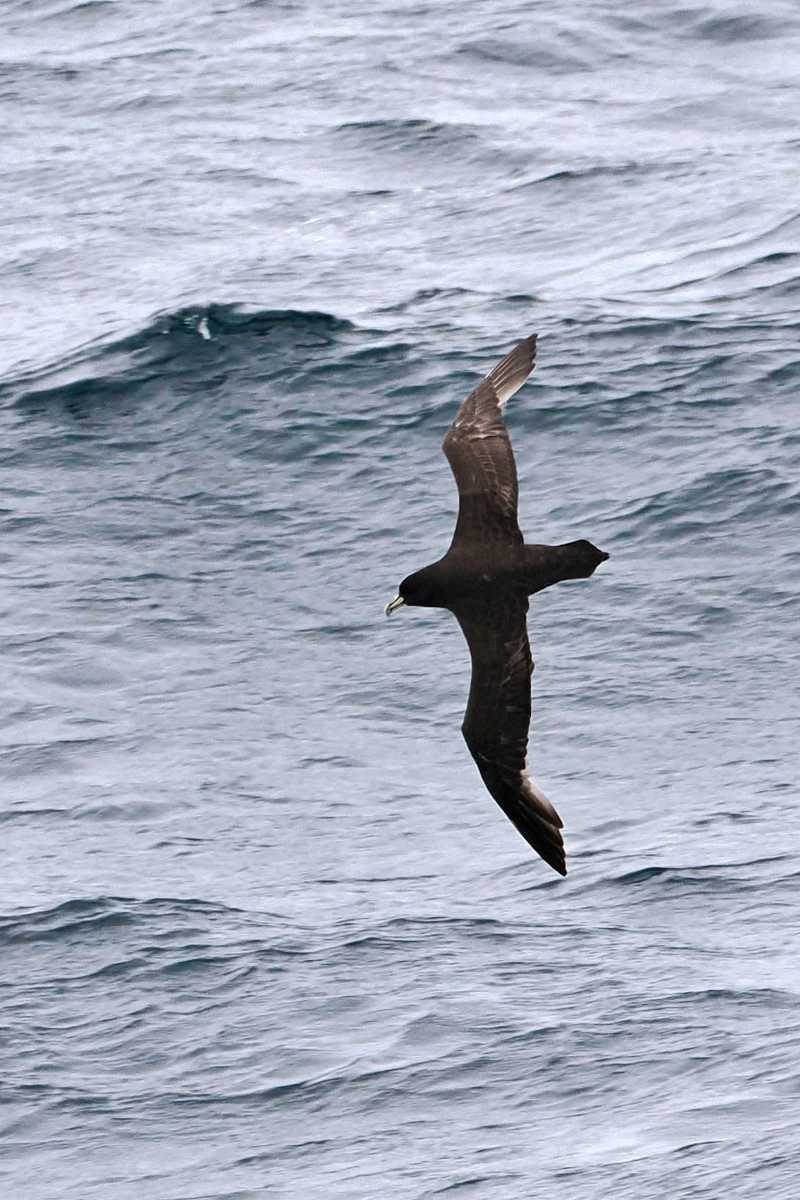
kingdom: Animalia
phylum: Chordata
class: Aves
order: Procellariiformes
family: Procellariidae
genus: Procellaria
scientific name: Procellaria aequinoctialis
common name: White-chinned petrel
